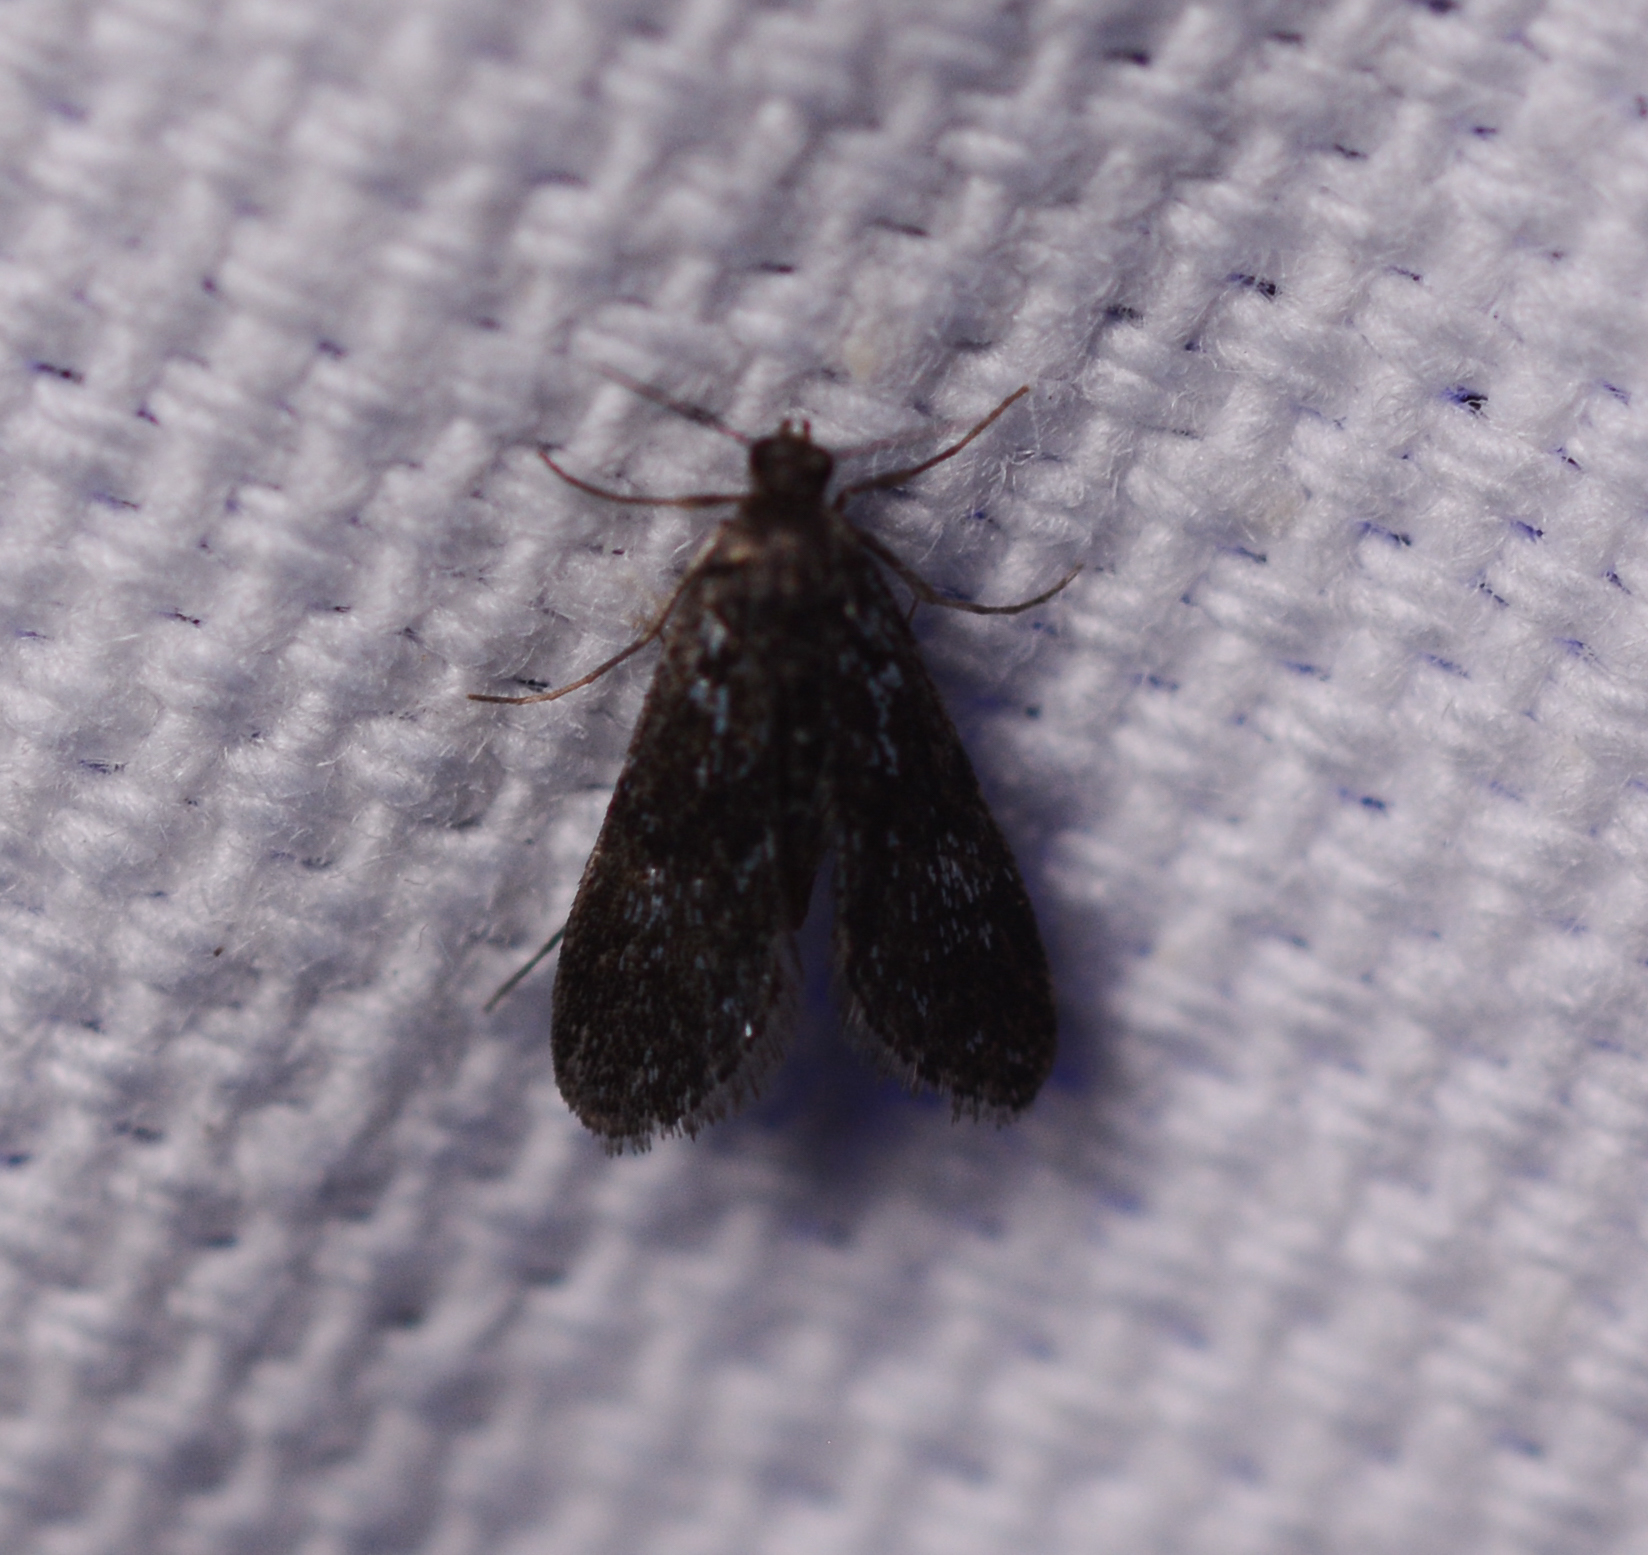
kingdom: Animalia
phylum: Arthropoda
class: Insecta
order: Lepidoptera
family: Crambidae
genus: Elophila
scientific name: Elophila tinealis
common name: Black duckweed moth
